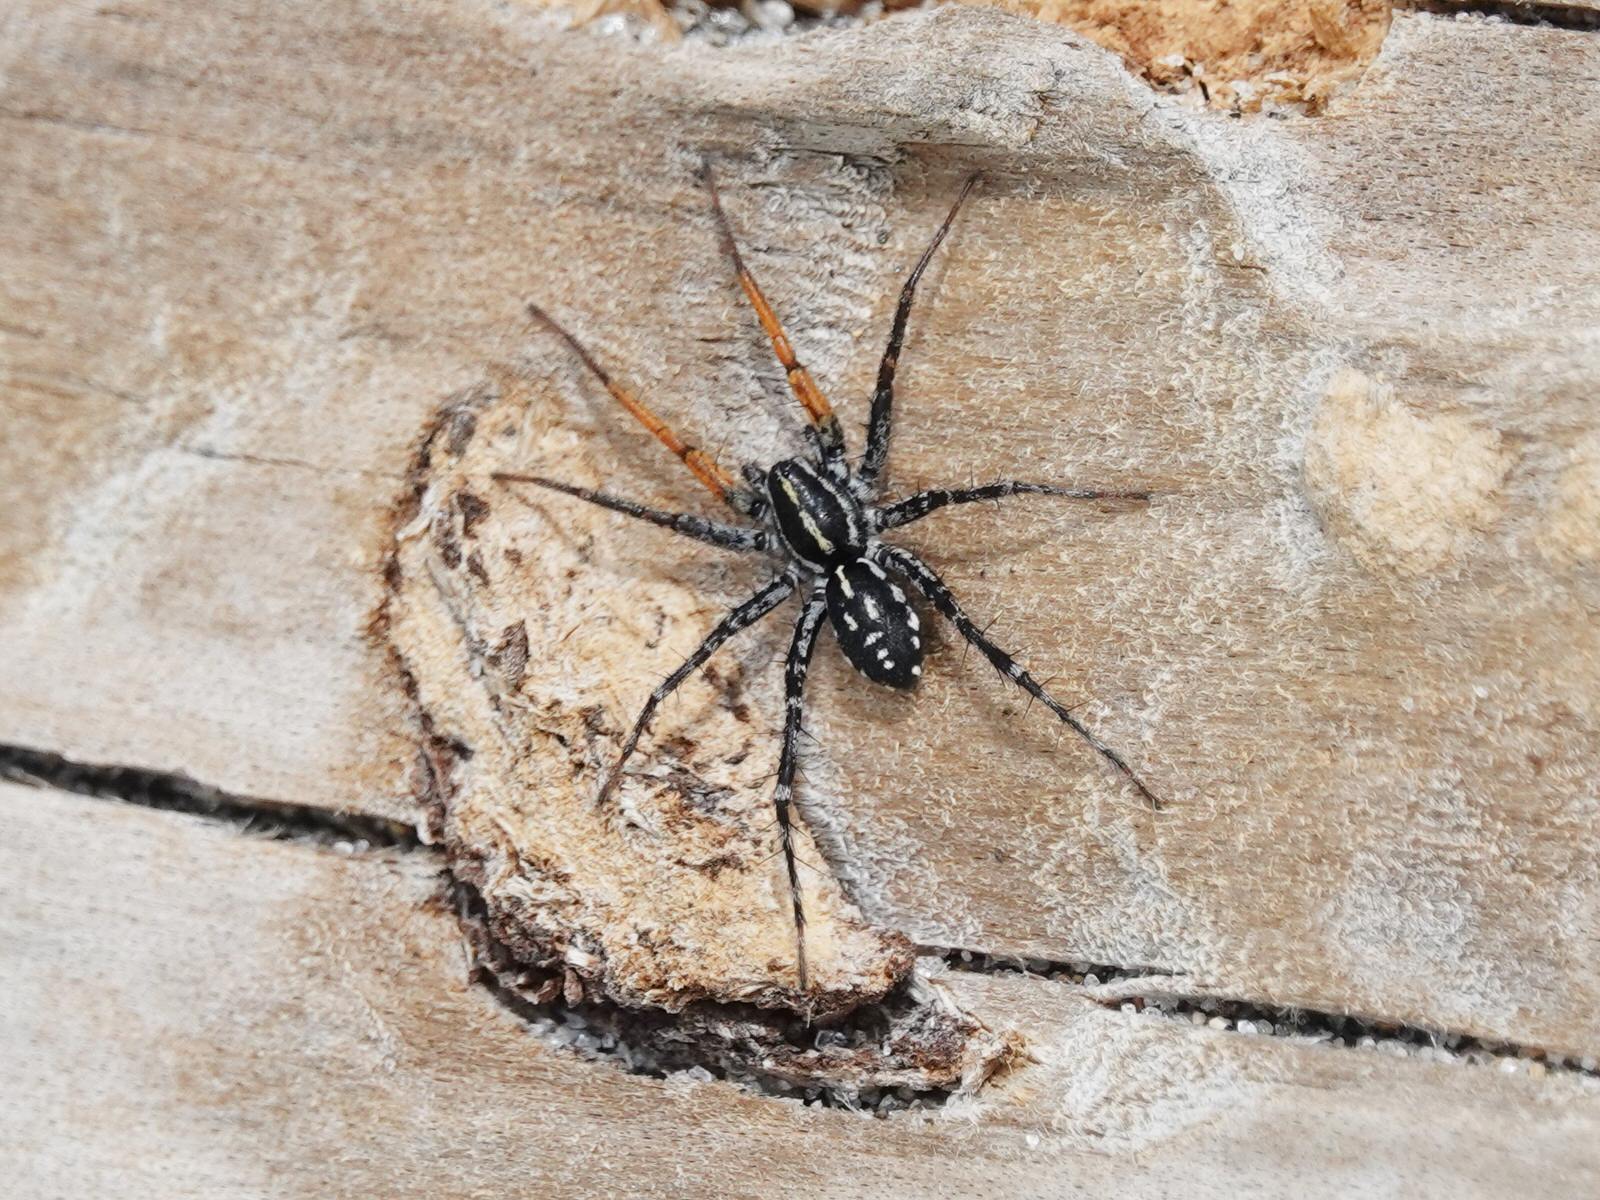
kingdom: Animalia
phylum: Arthropoda
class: Arachnida
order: Araneae
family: Corinnidae
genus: Nyssus
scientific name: Nyssus coloripes
